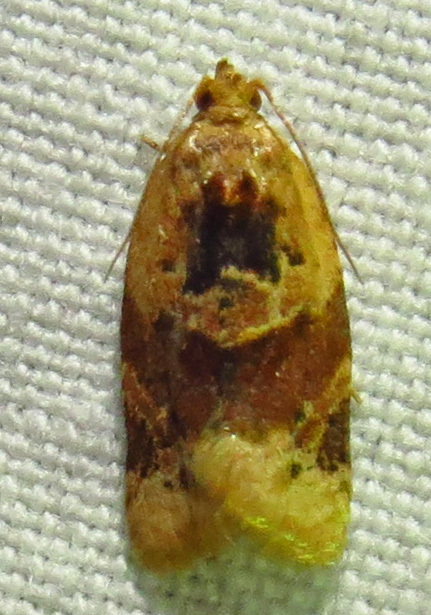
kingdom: Animalia
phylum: Arthropoda
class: Insecta
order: Lepidoptera
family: Tortricidae
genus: Argyrotaenia
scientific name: Argyrotaenia velutinana
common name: Red-banded leafroller moth
